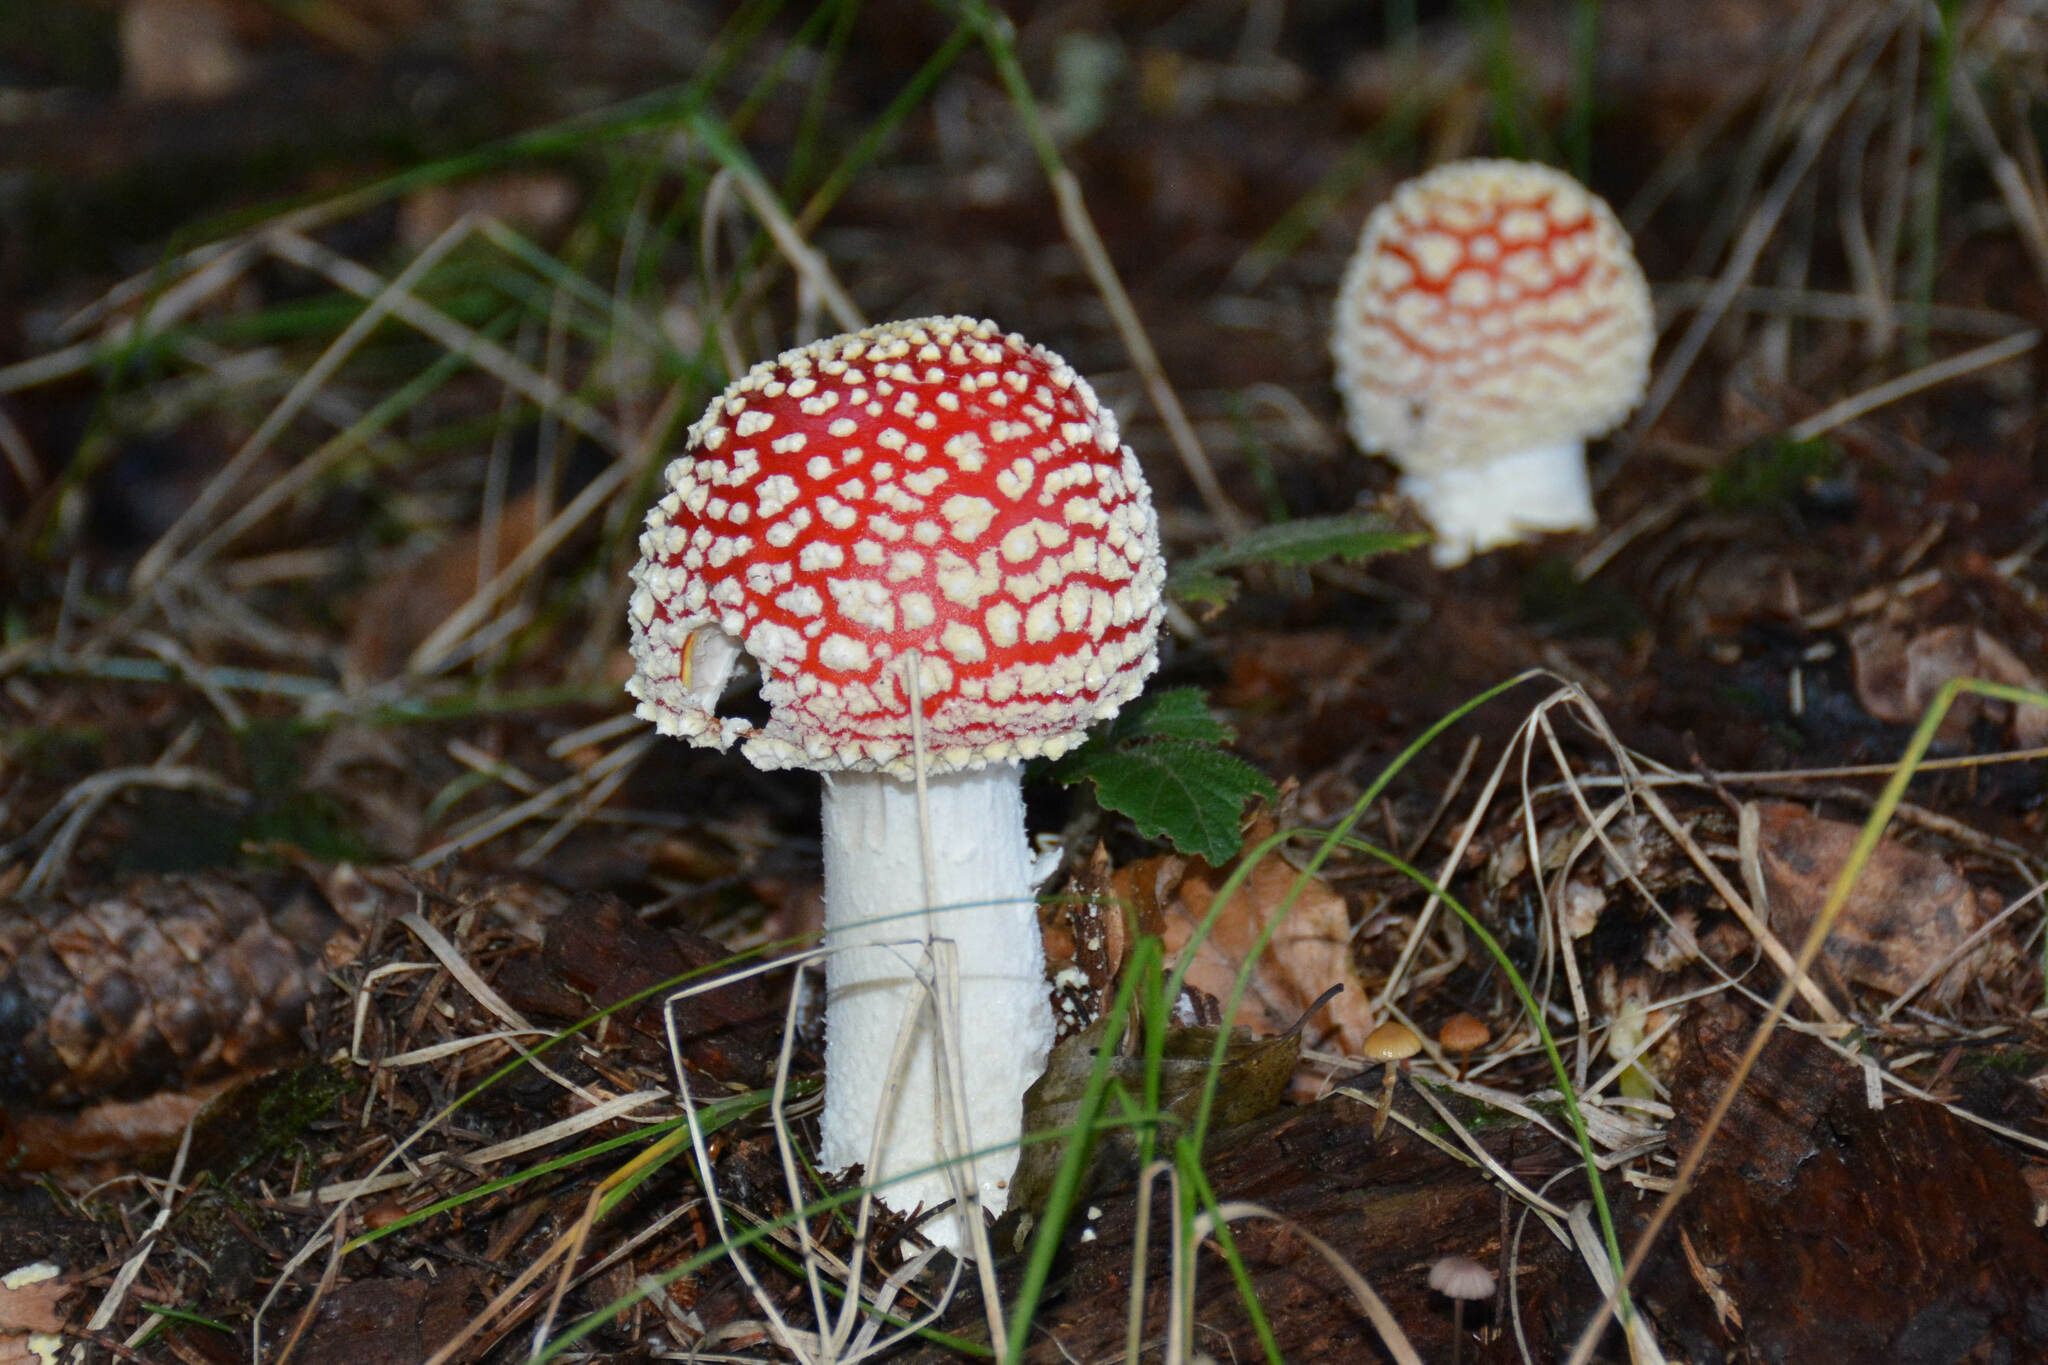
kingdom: Fungi
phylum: Basidiomycota
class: Agaricomycetes
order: Agaricales
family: Amanitaceae
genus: Amanita
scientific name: Amanita muscaria
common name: Fly agaric
